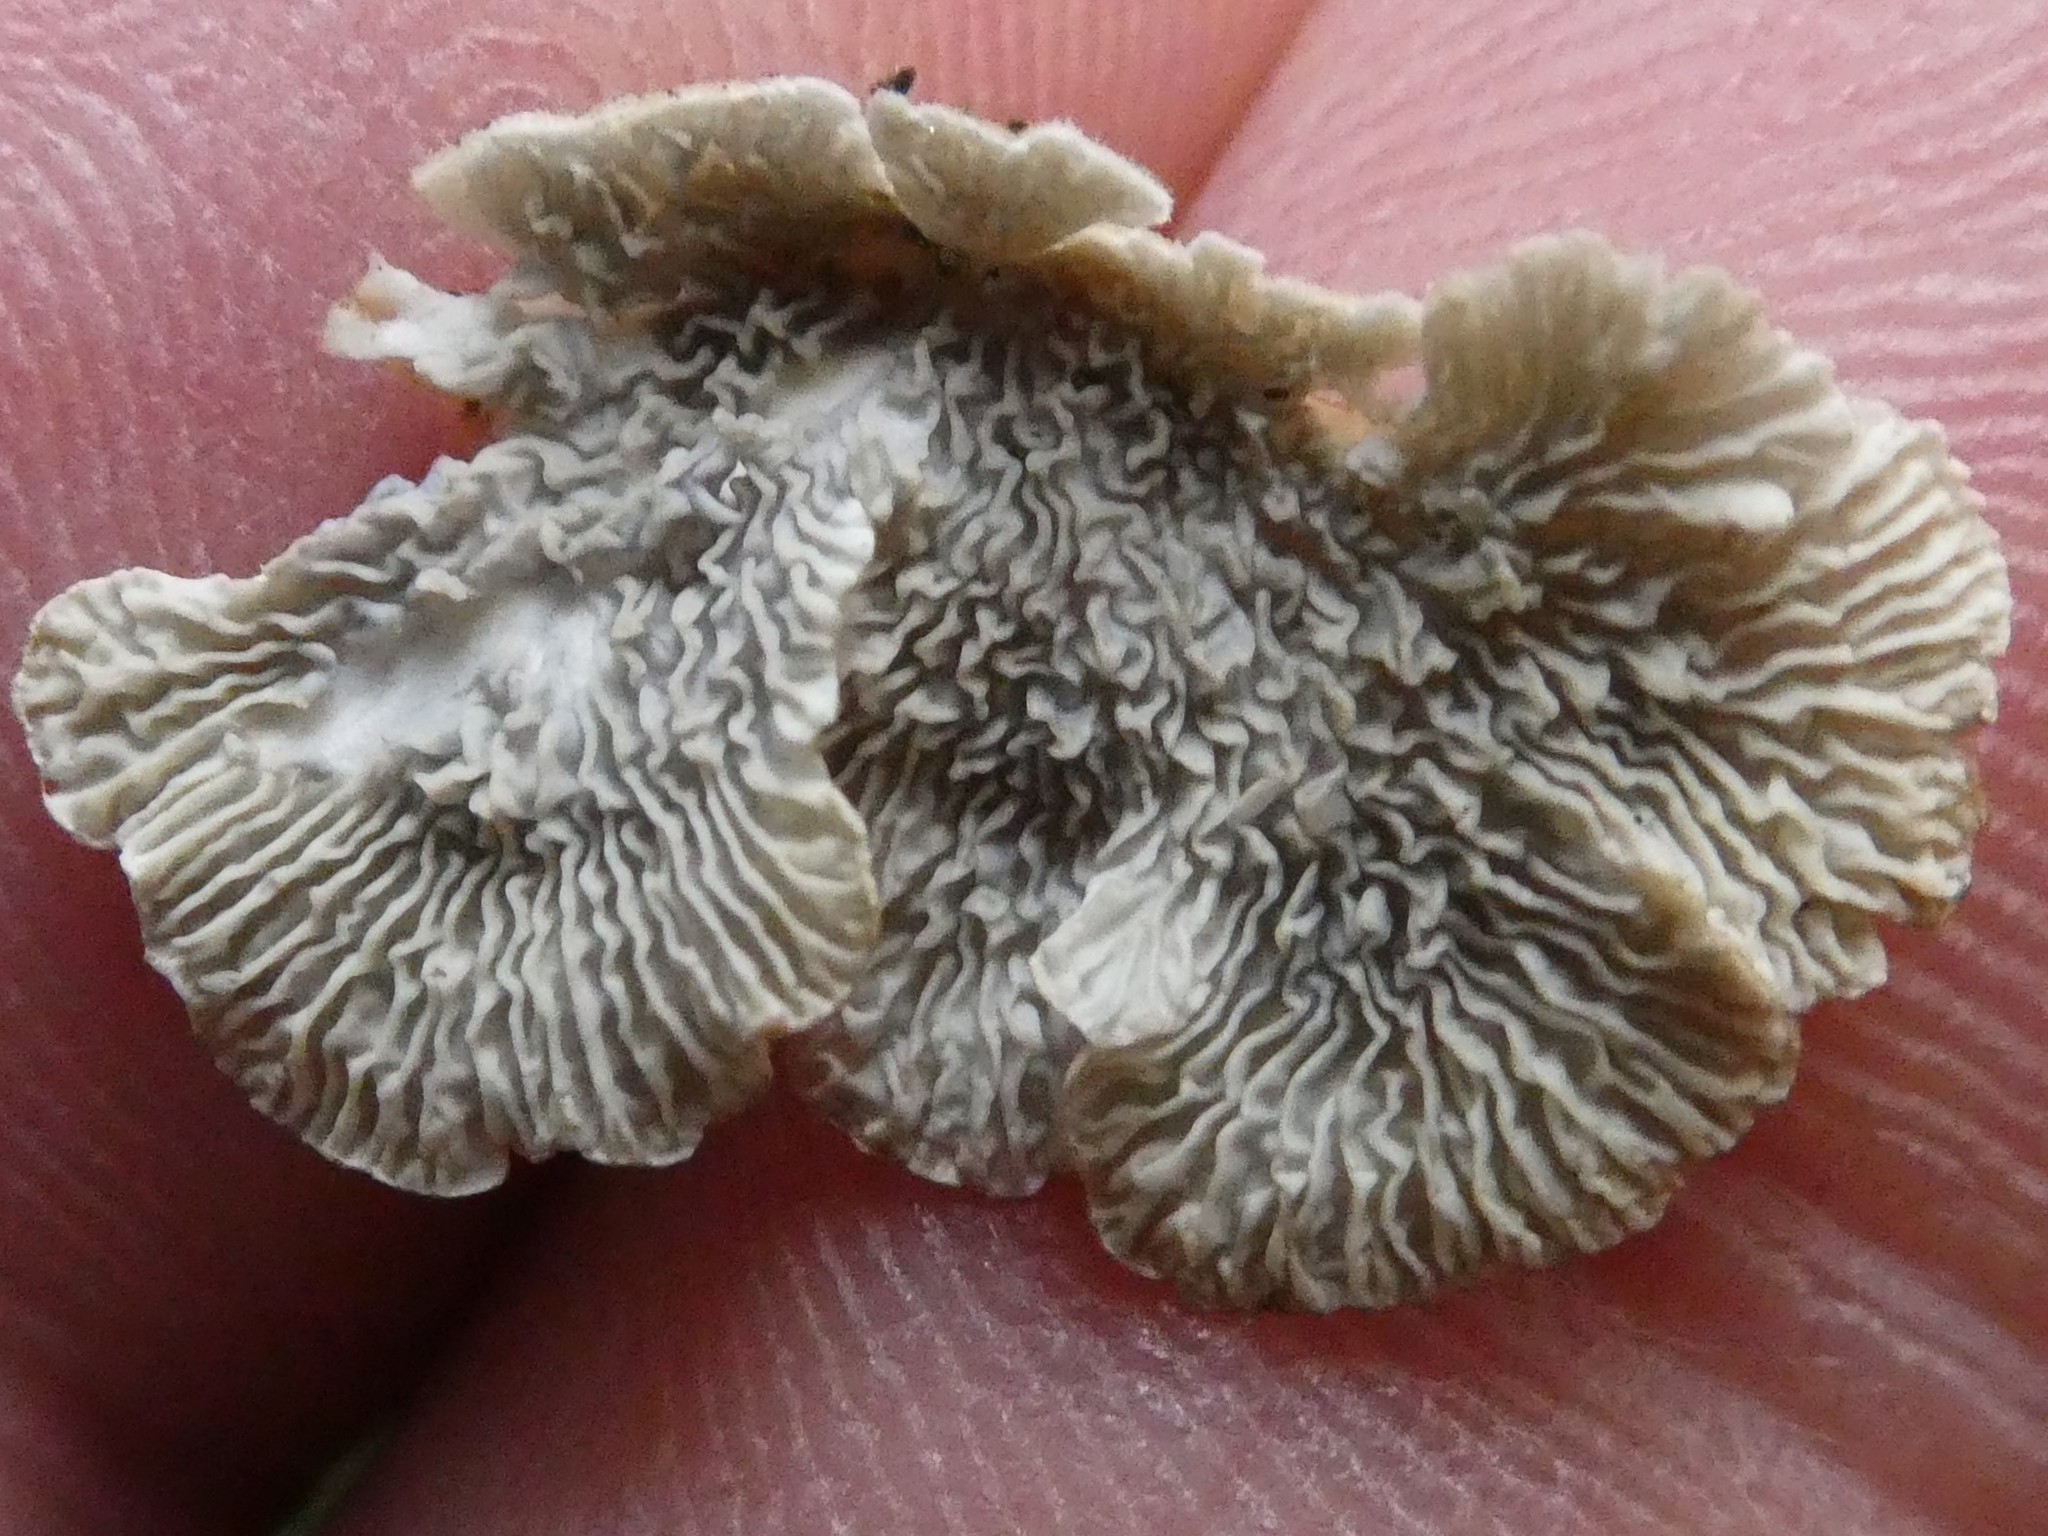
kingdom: Fungi
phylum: Basidiomycota
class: Agaricomycetes
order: Amylocorticiales
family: Amylocorticiaceae
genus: Plicaturopsis
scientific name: Plicaturopsis crispa
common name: Crimped gill
